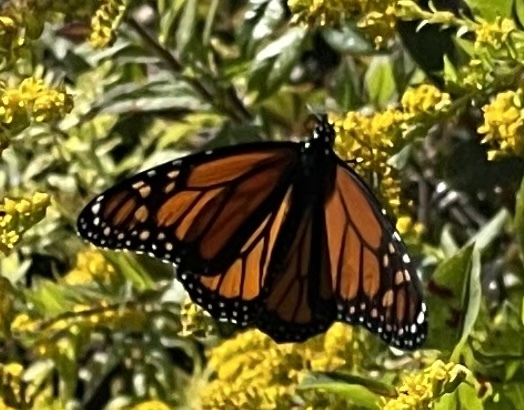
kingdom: Animalia
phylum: Arthropoda
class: Insecta
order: Lepidoptera
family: Nymphalidae
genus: Danaus
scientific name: Danaus plexippus
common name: Monarch
